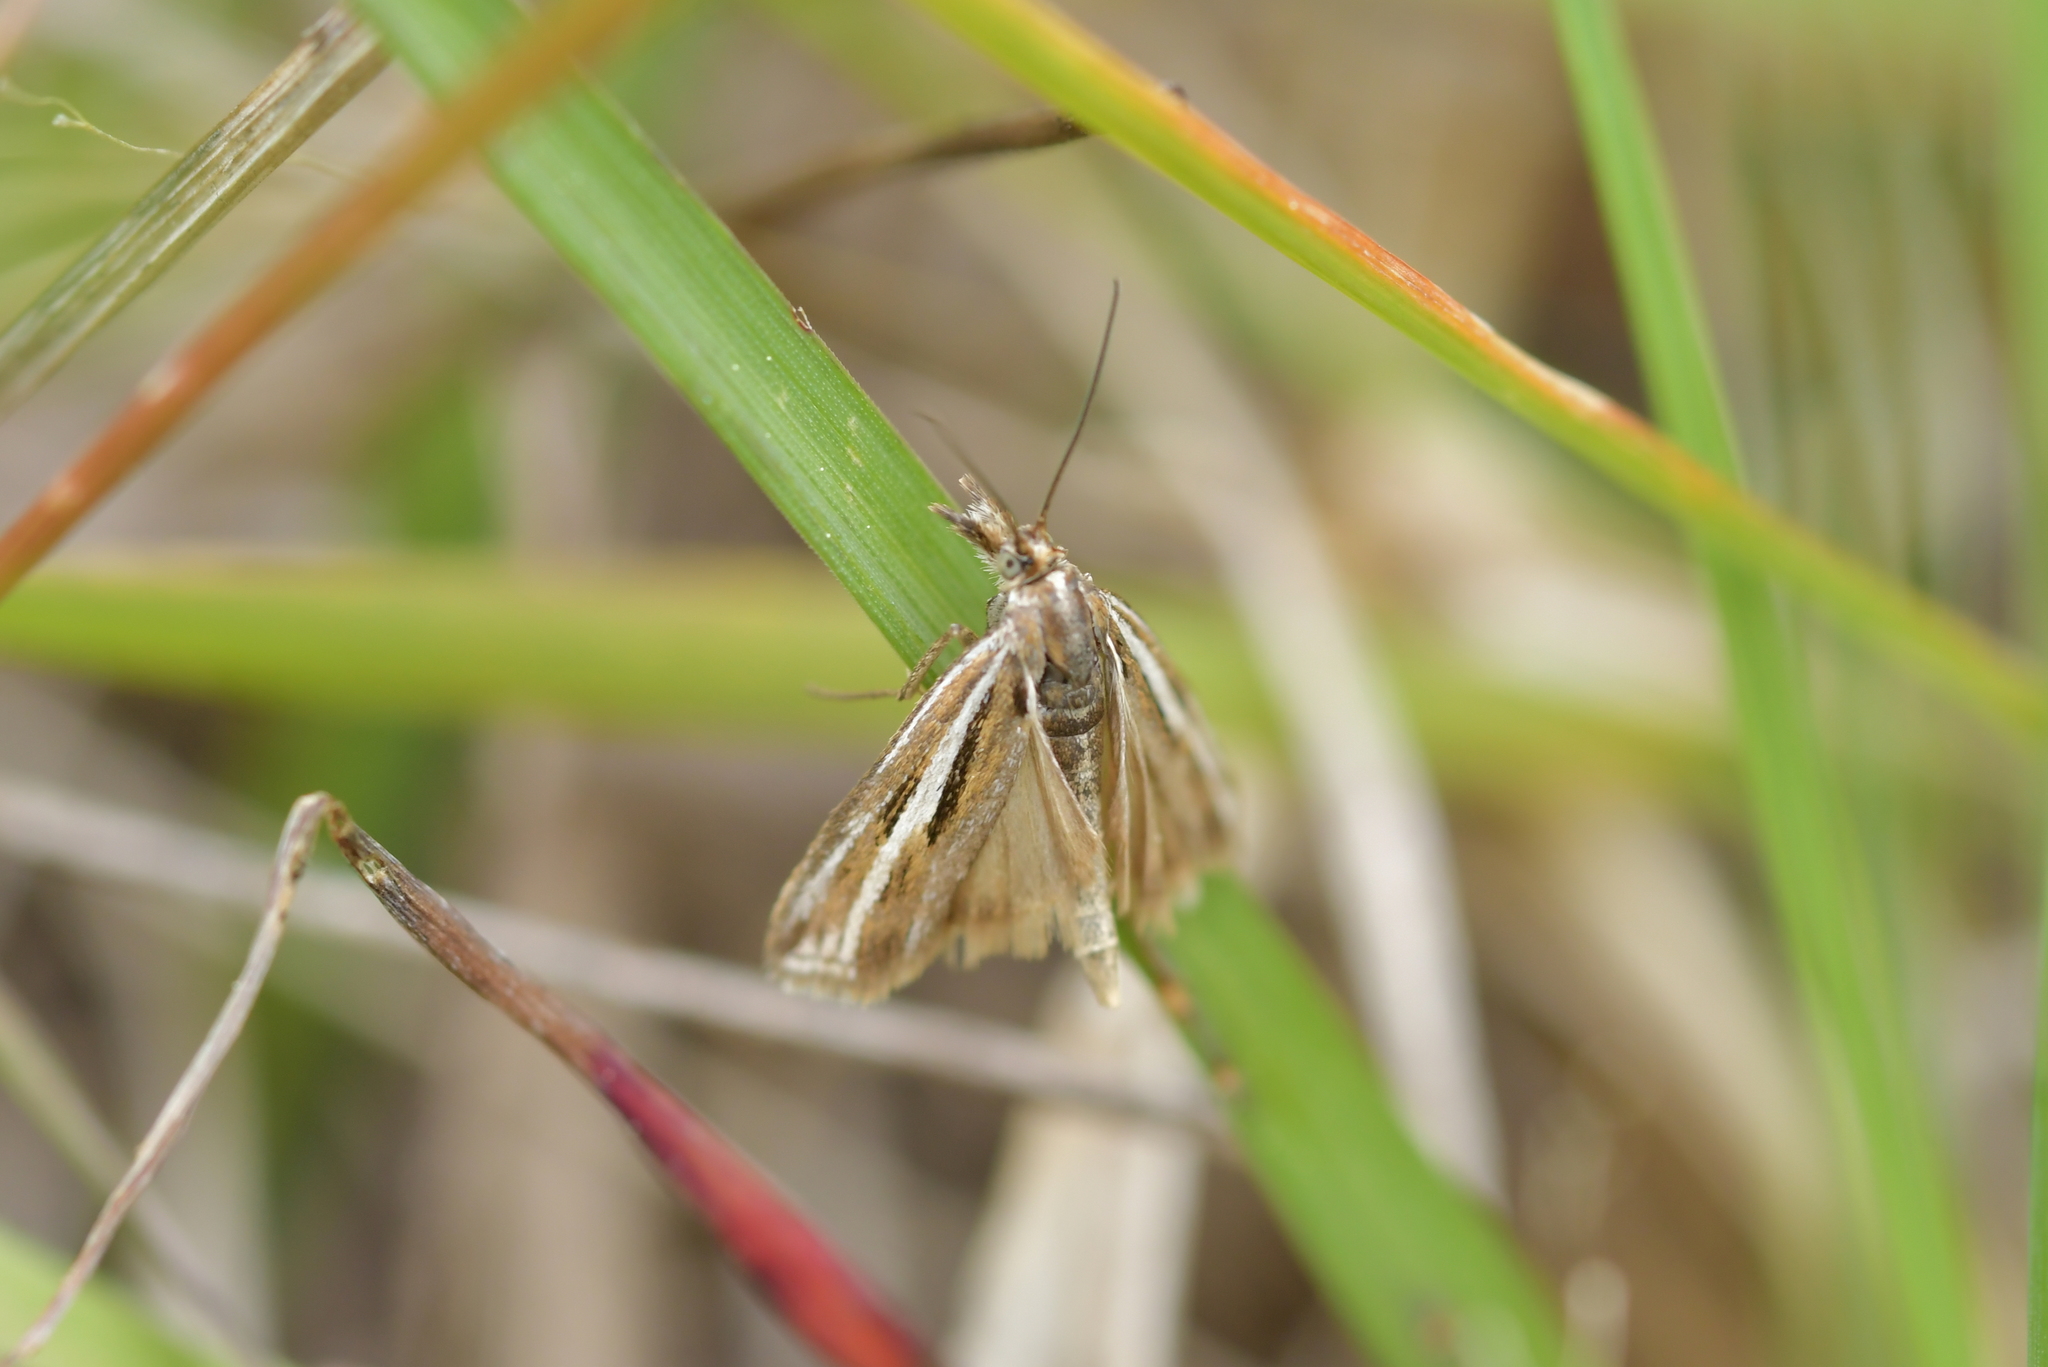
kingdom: Animalia
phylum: Arthropoda
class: Insecta
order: Lepidoptera
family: Crambidae
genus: Orocrambus
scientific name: Orocrambus corruptus
